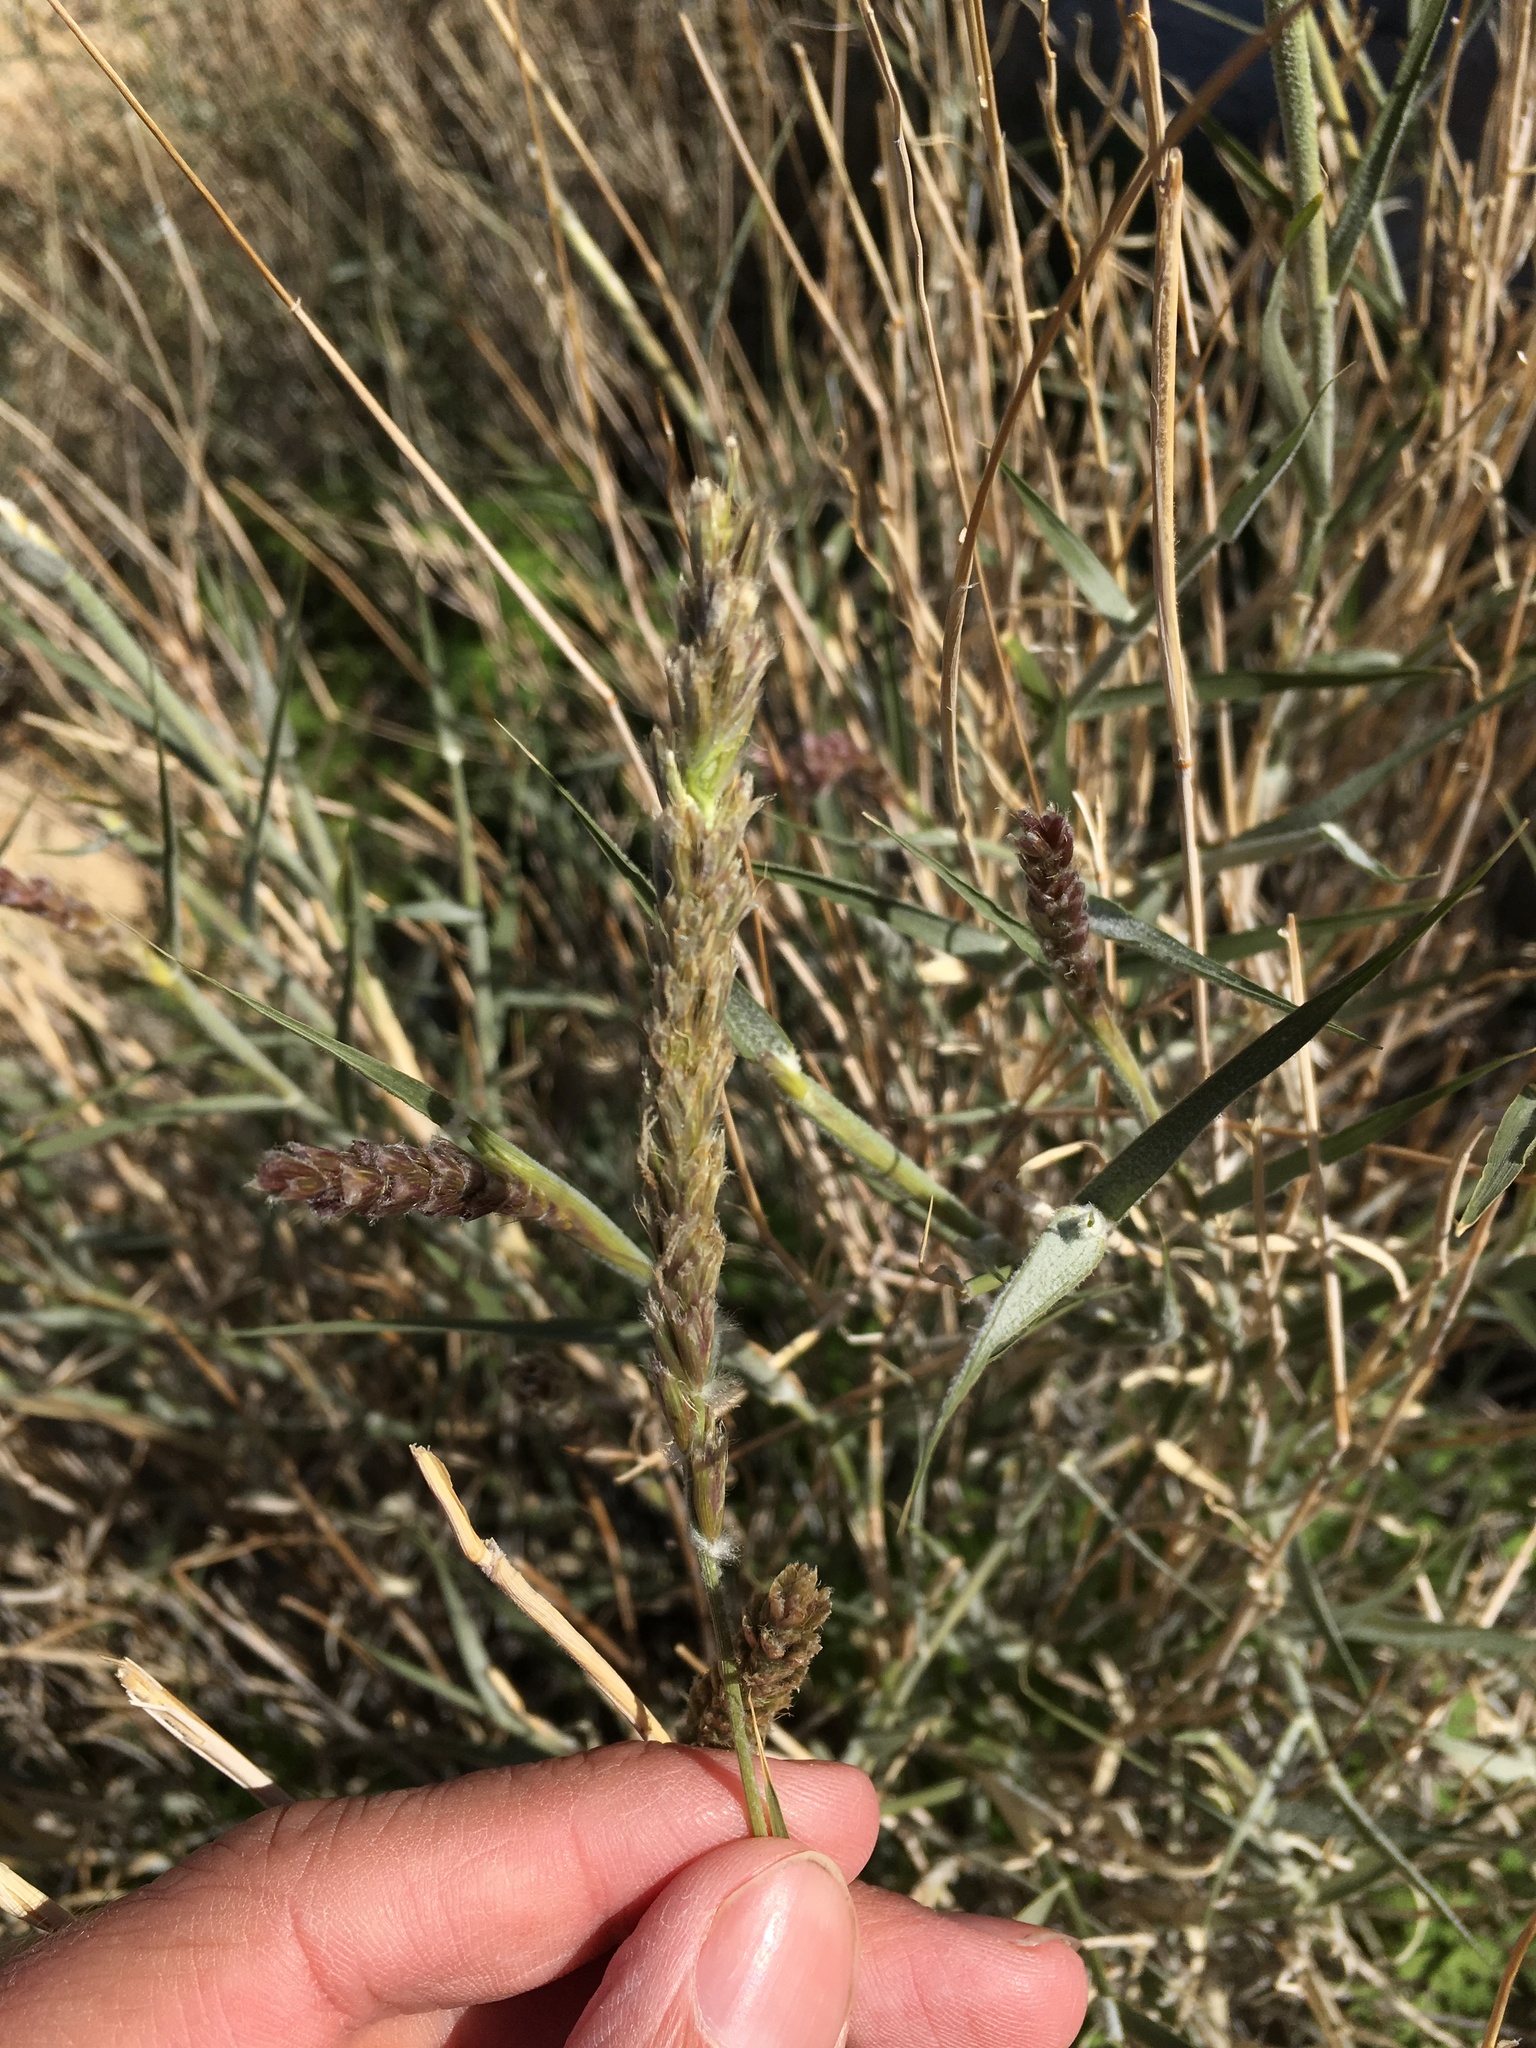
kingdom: Plantae
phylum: Tracheophyta
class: Liliopsida
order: Poales
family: Poaceae
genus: Hilaria
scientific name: Hilaria rigida
